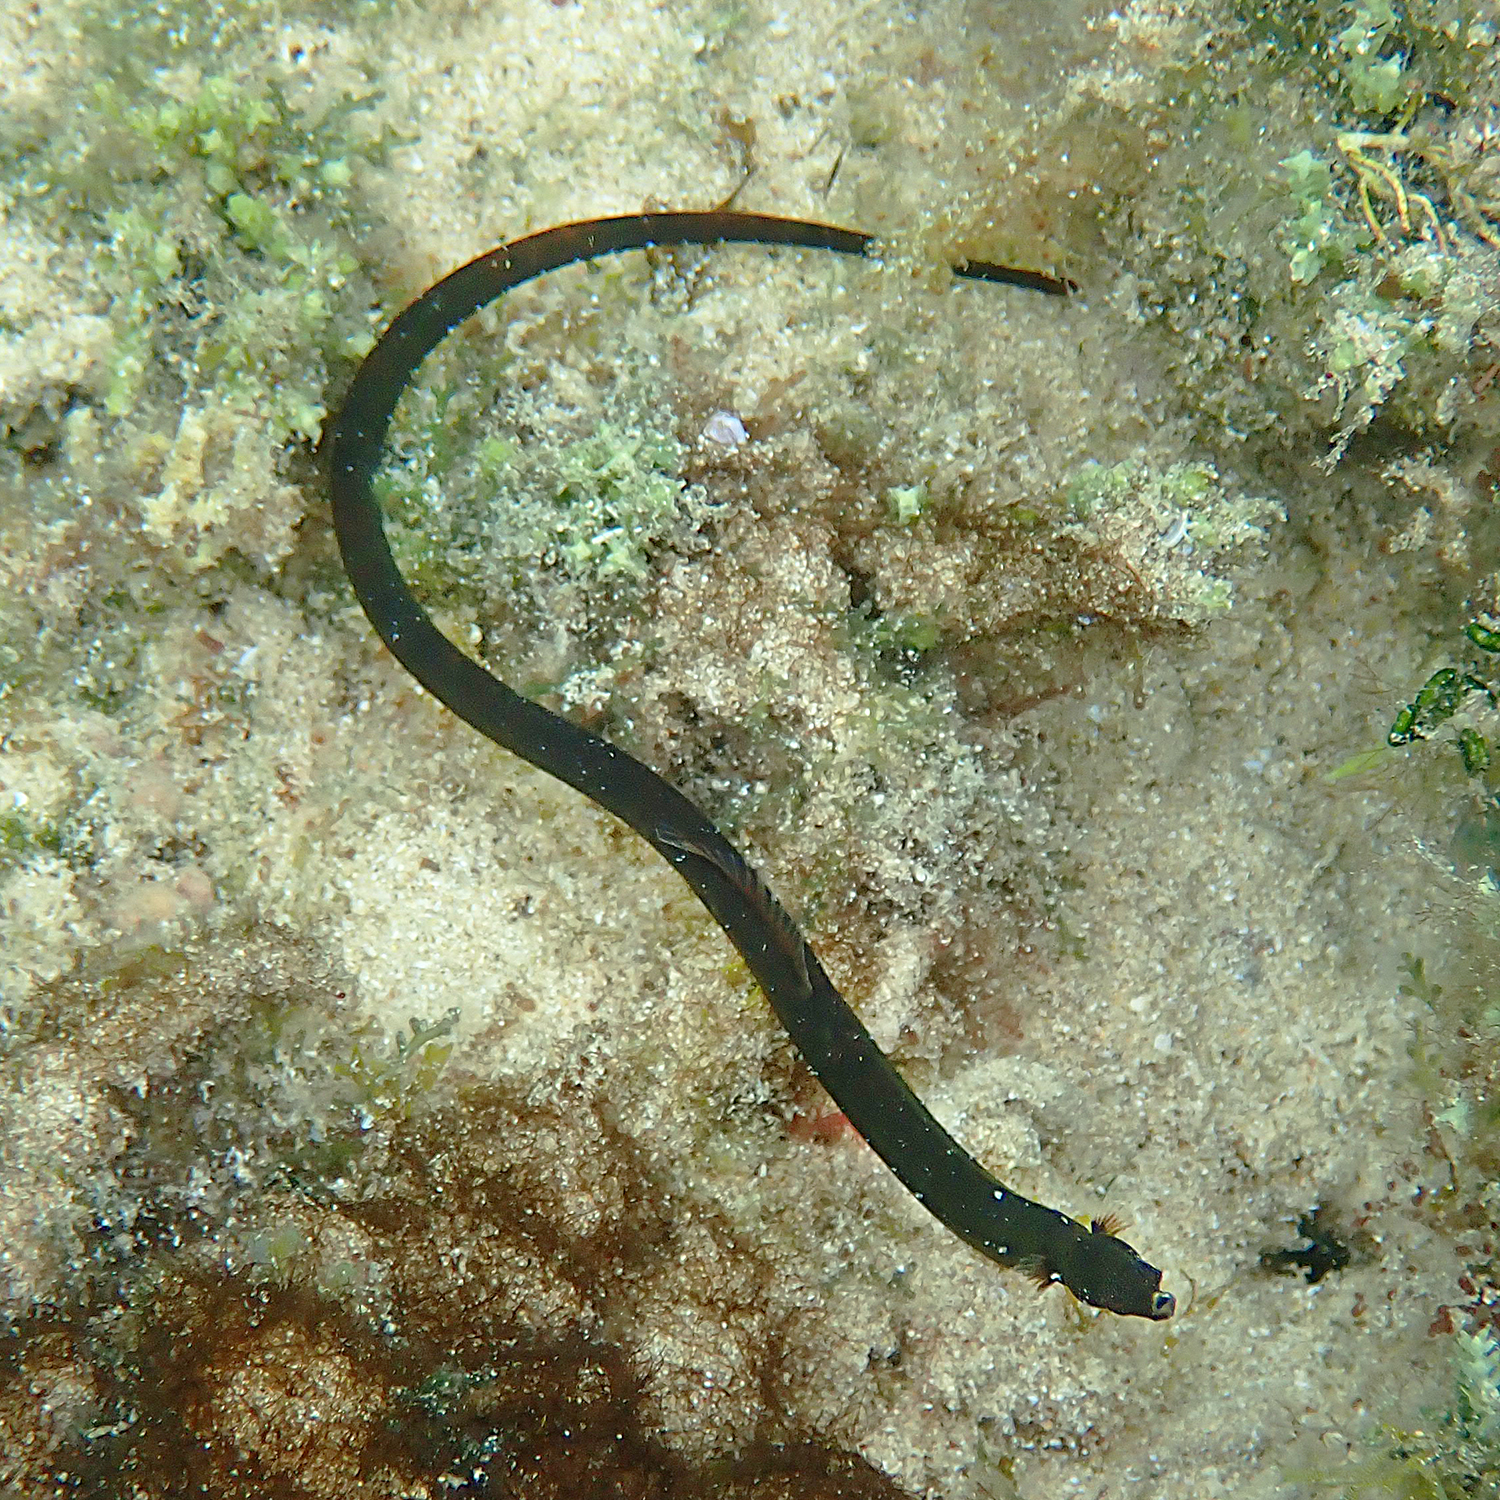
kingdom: Animalia
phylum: Chordata
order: Syngnathiformes
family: Syngnathidae
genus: Halicampus
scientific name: Halicampus boothae
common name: Booth's pipefish
